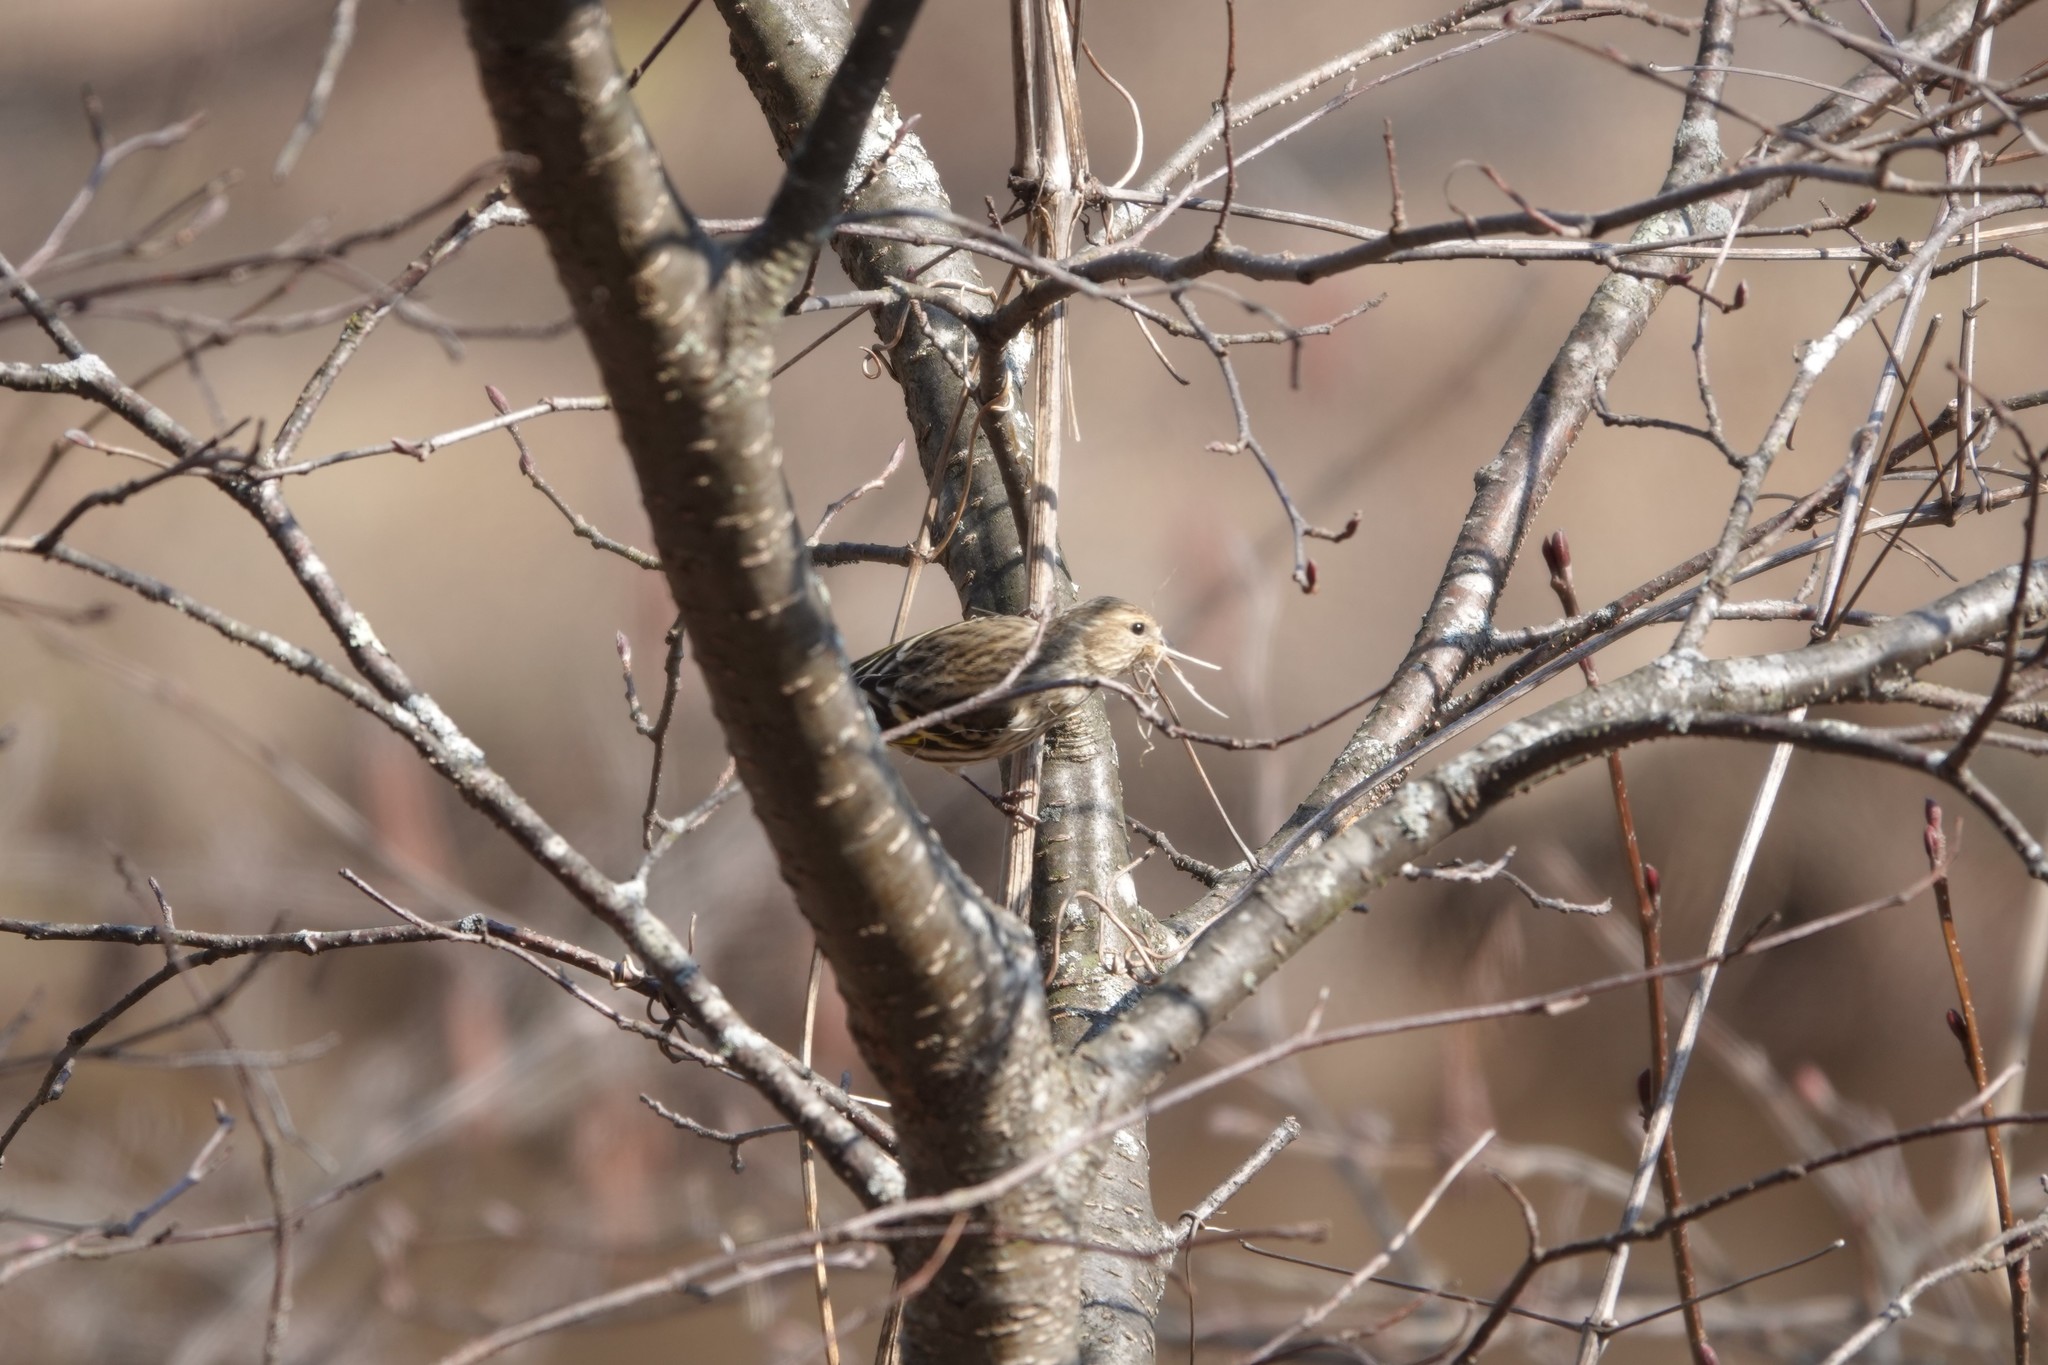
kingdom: Animalia
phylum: Chordata
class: Aves
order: Passeriformes
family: Fringillidae
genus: Spinus
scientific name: Spinus pinus
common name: Pine siskin
